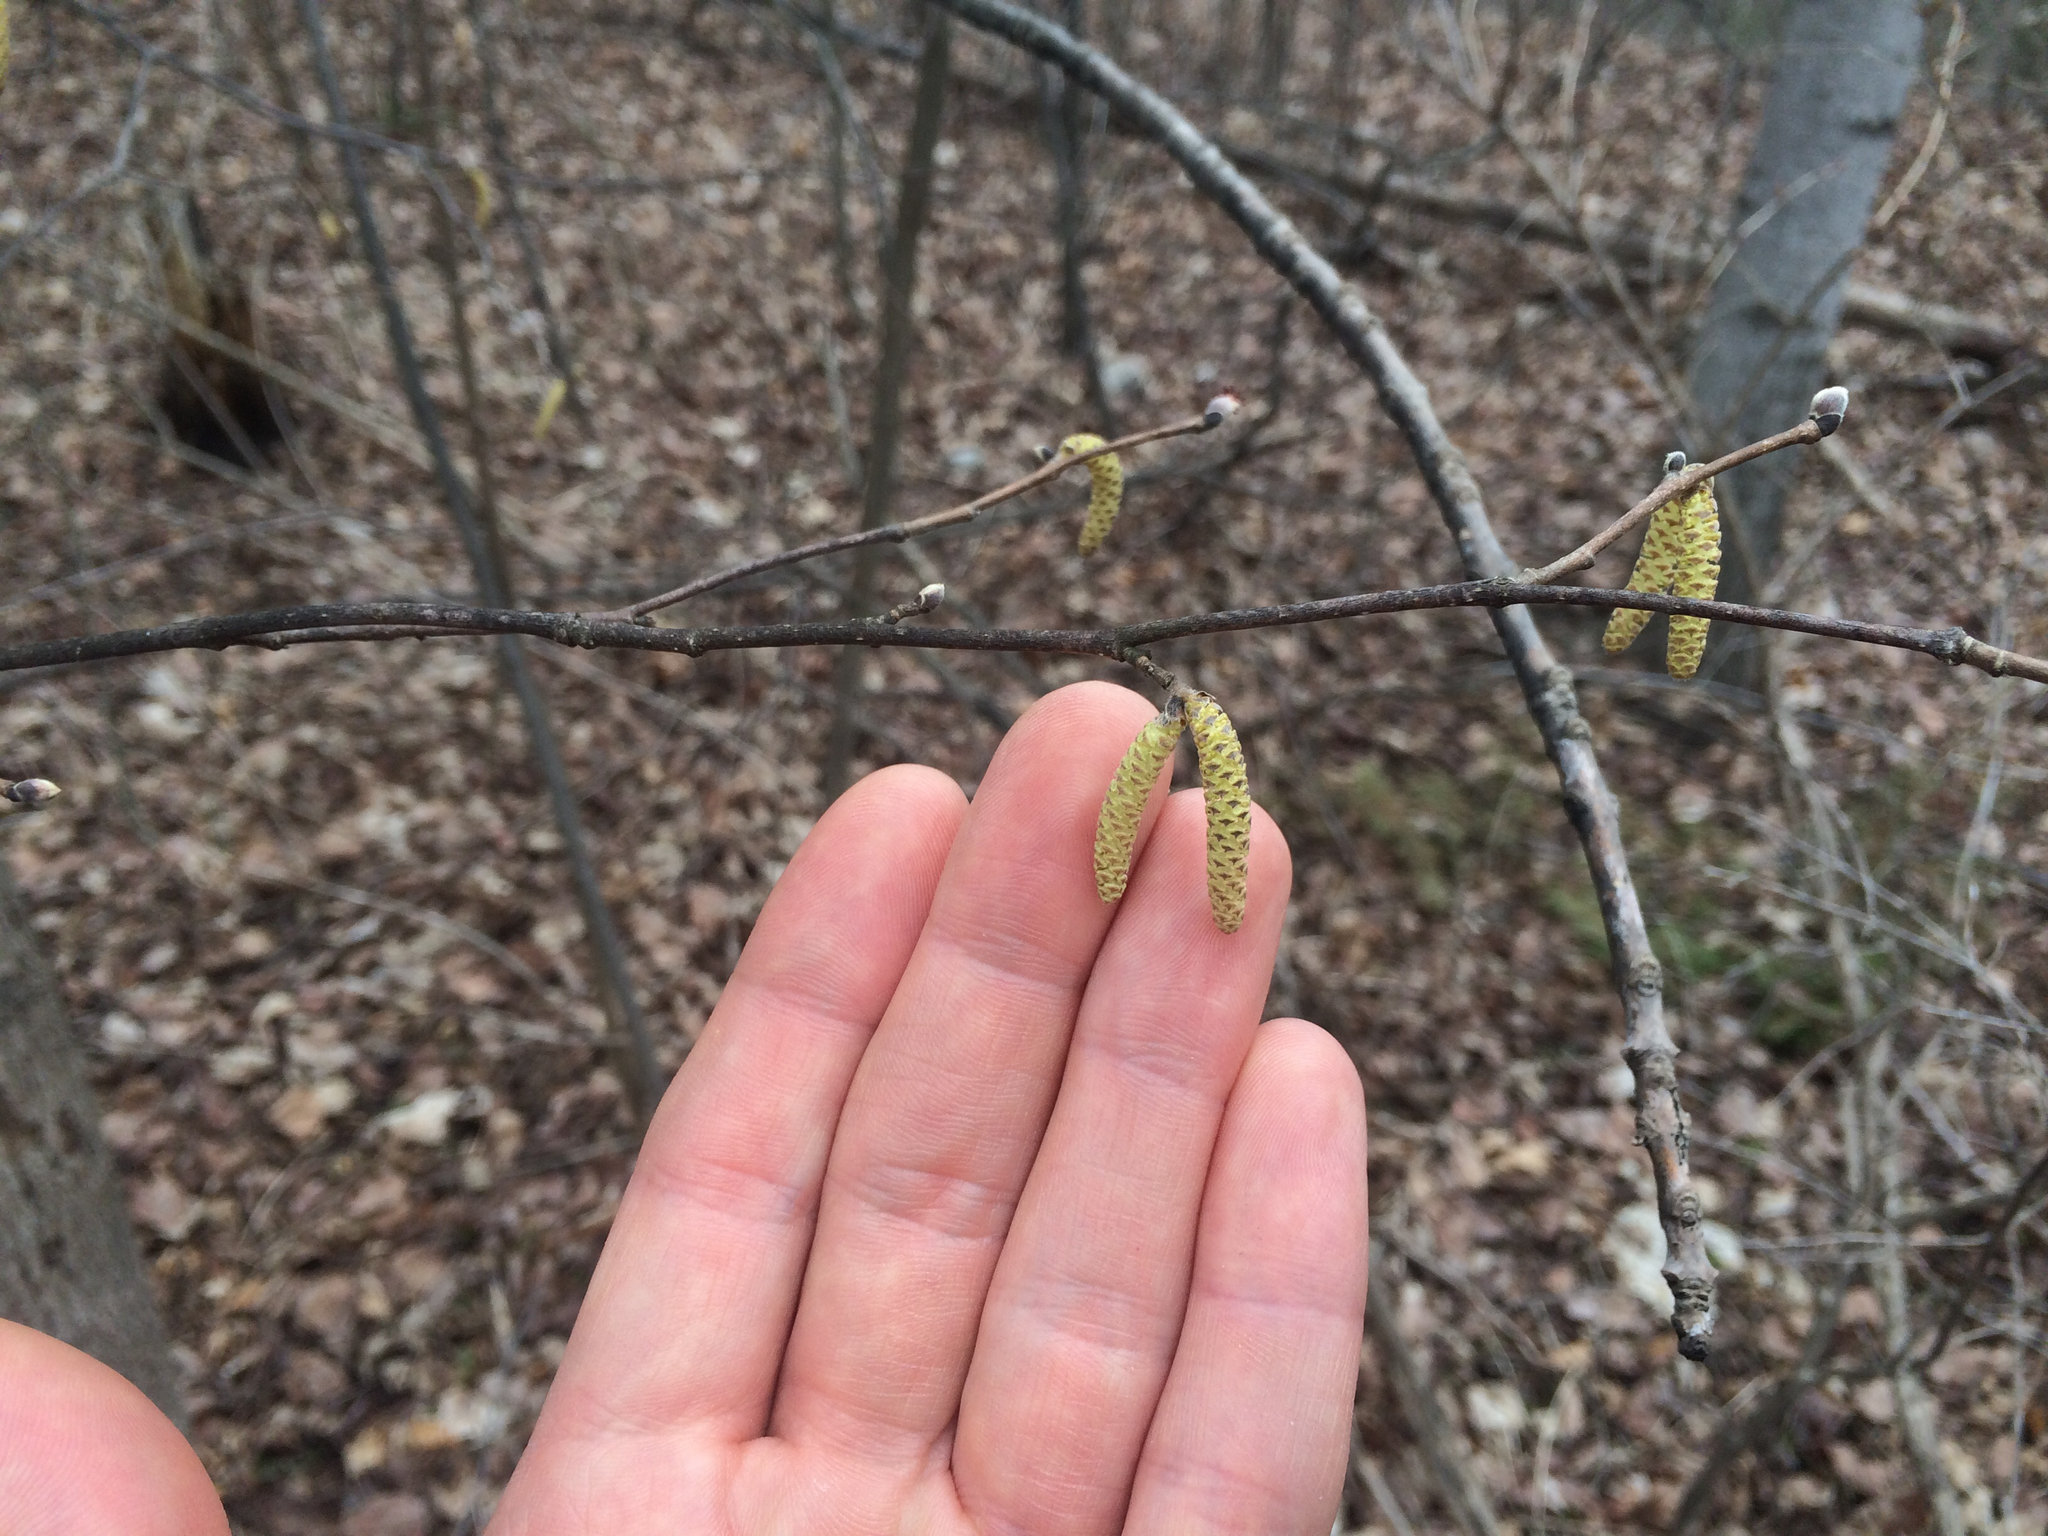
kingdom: Plantae
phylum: Tracheophyta
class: Magnoliopsida
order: Fagales
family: Betulaceae
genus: Corylus
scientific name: Corylus cornuta
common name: Beaked hazel
